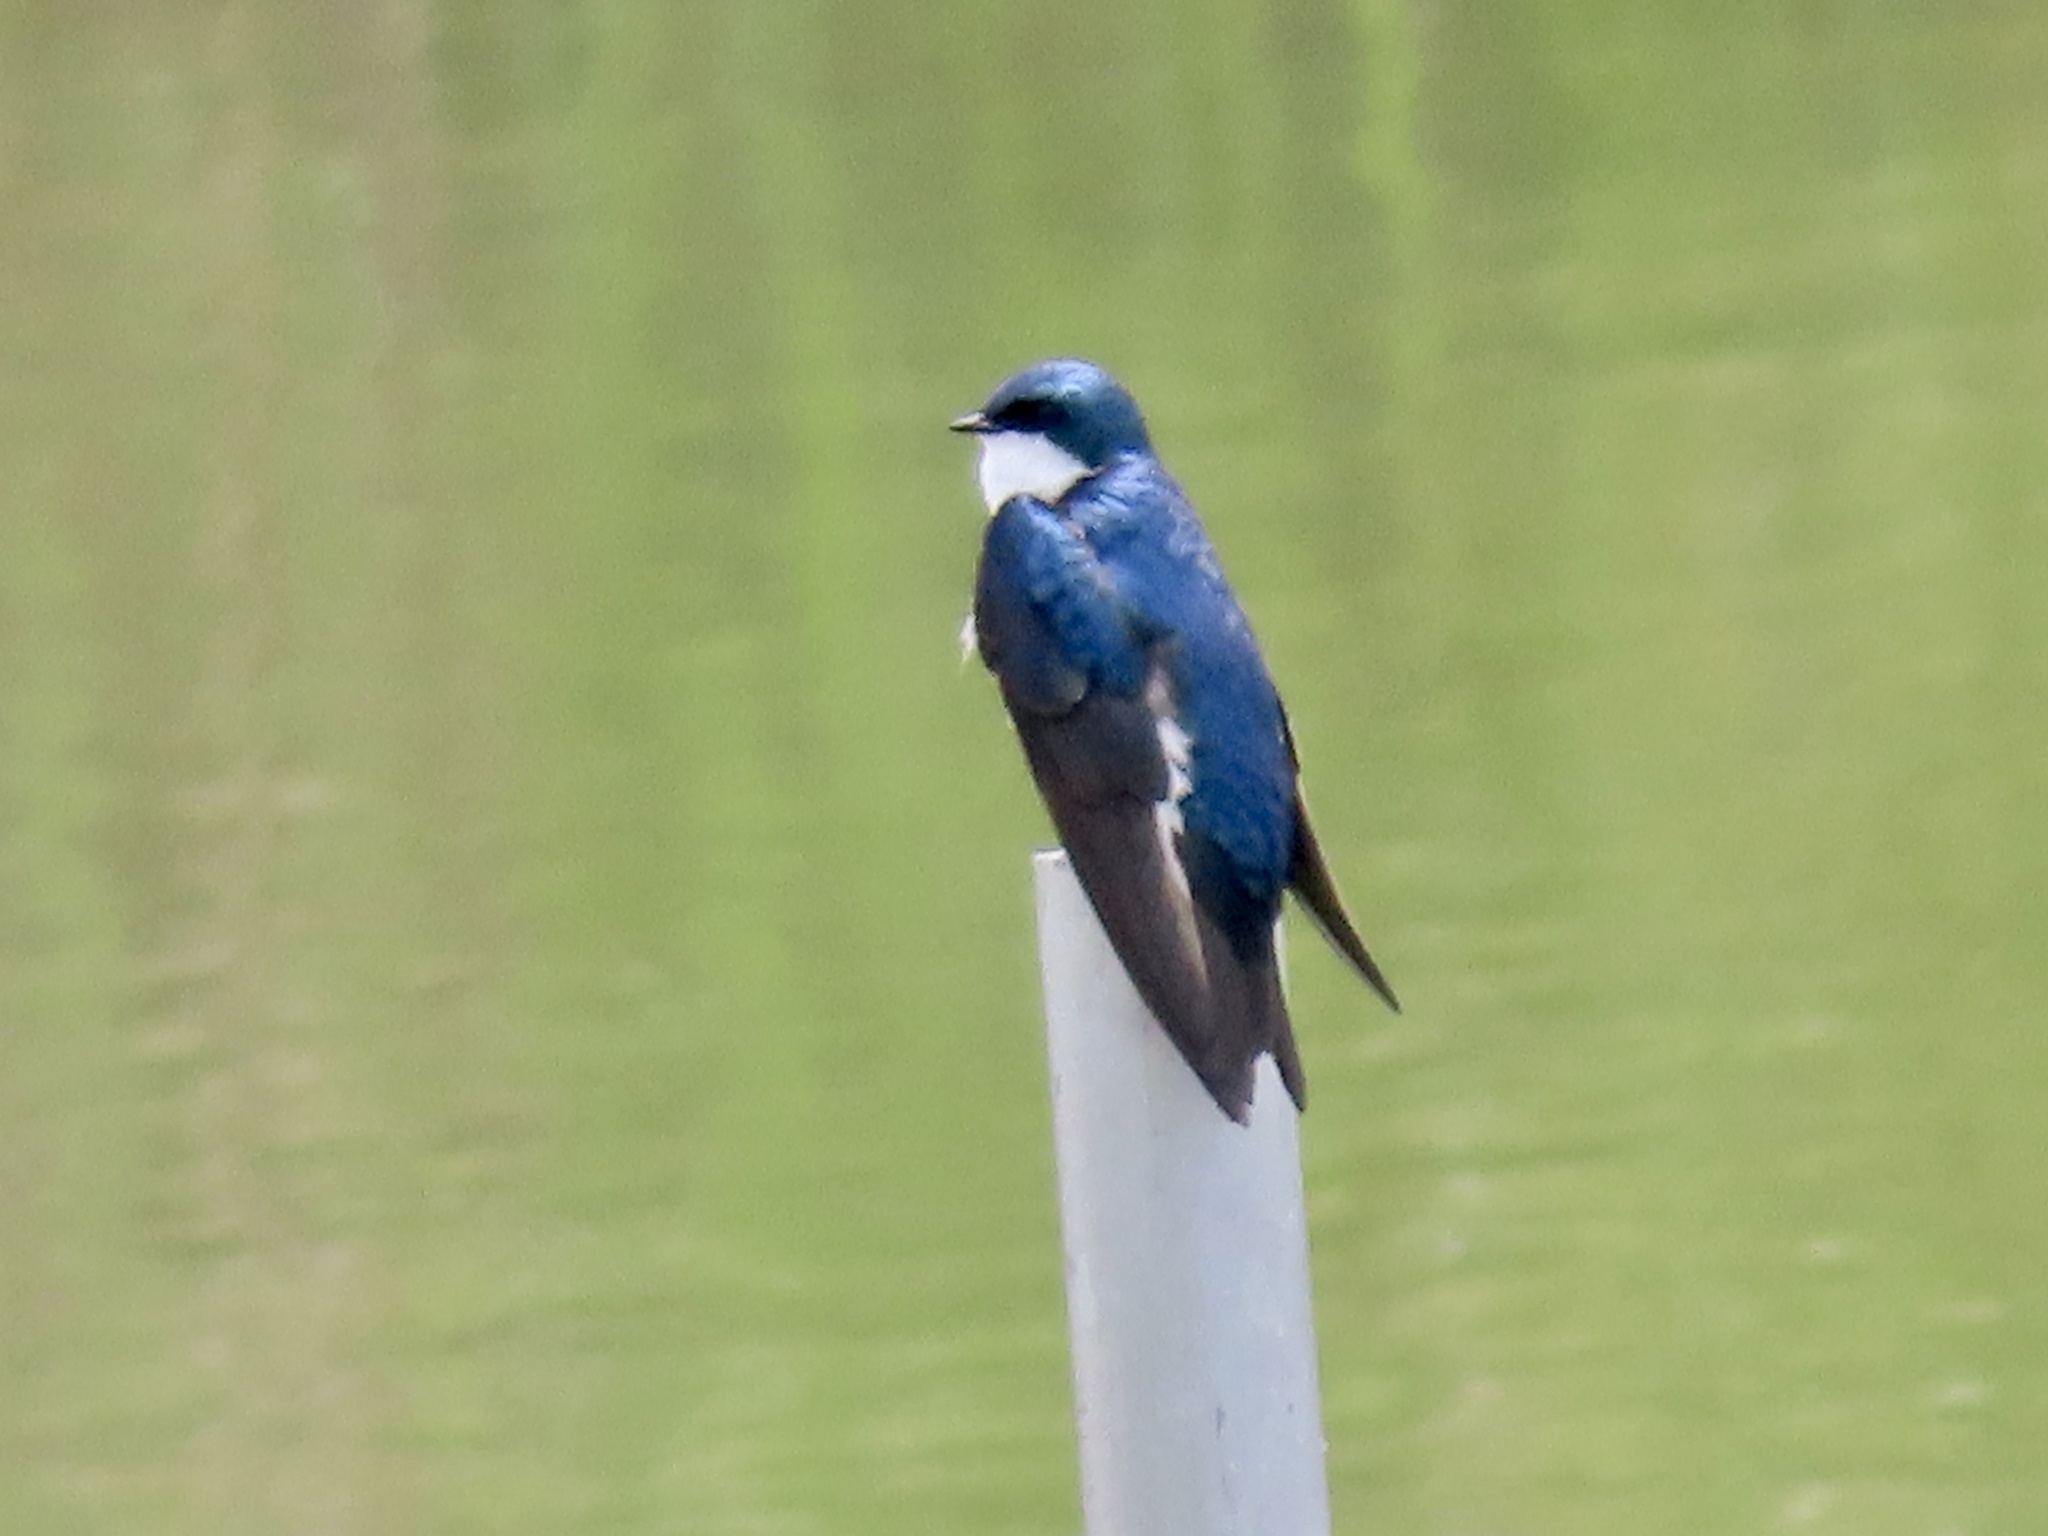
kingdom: Animalia
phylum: Chordata
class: Aves
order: Passeriformes
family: Hirundinidae
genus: Tachycineta
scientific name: Tachycineta bicolor
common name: Tree swallow
